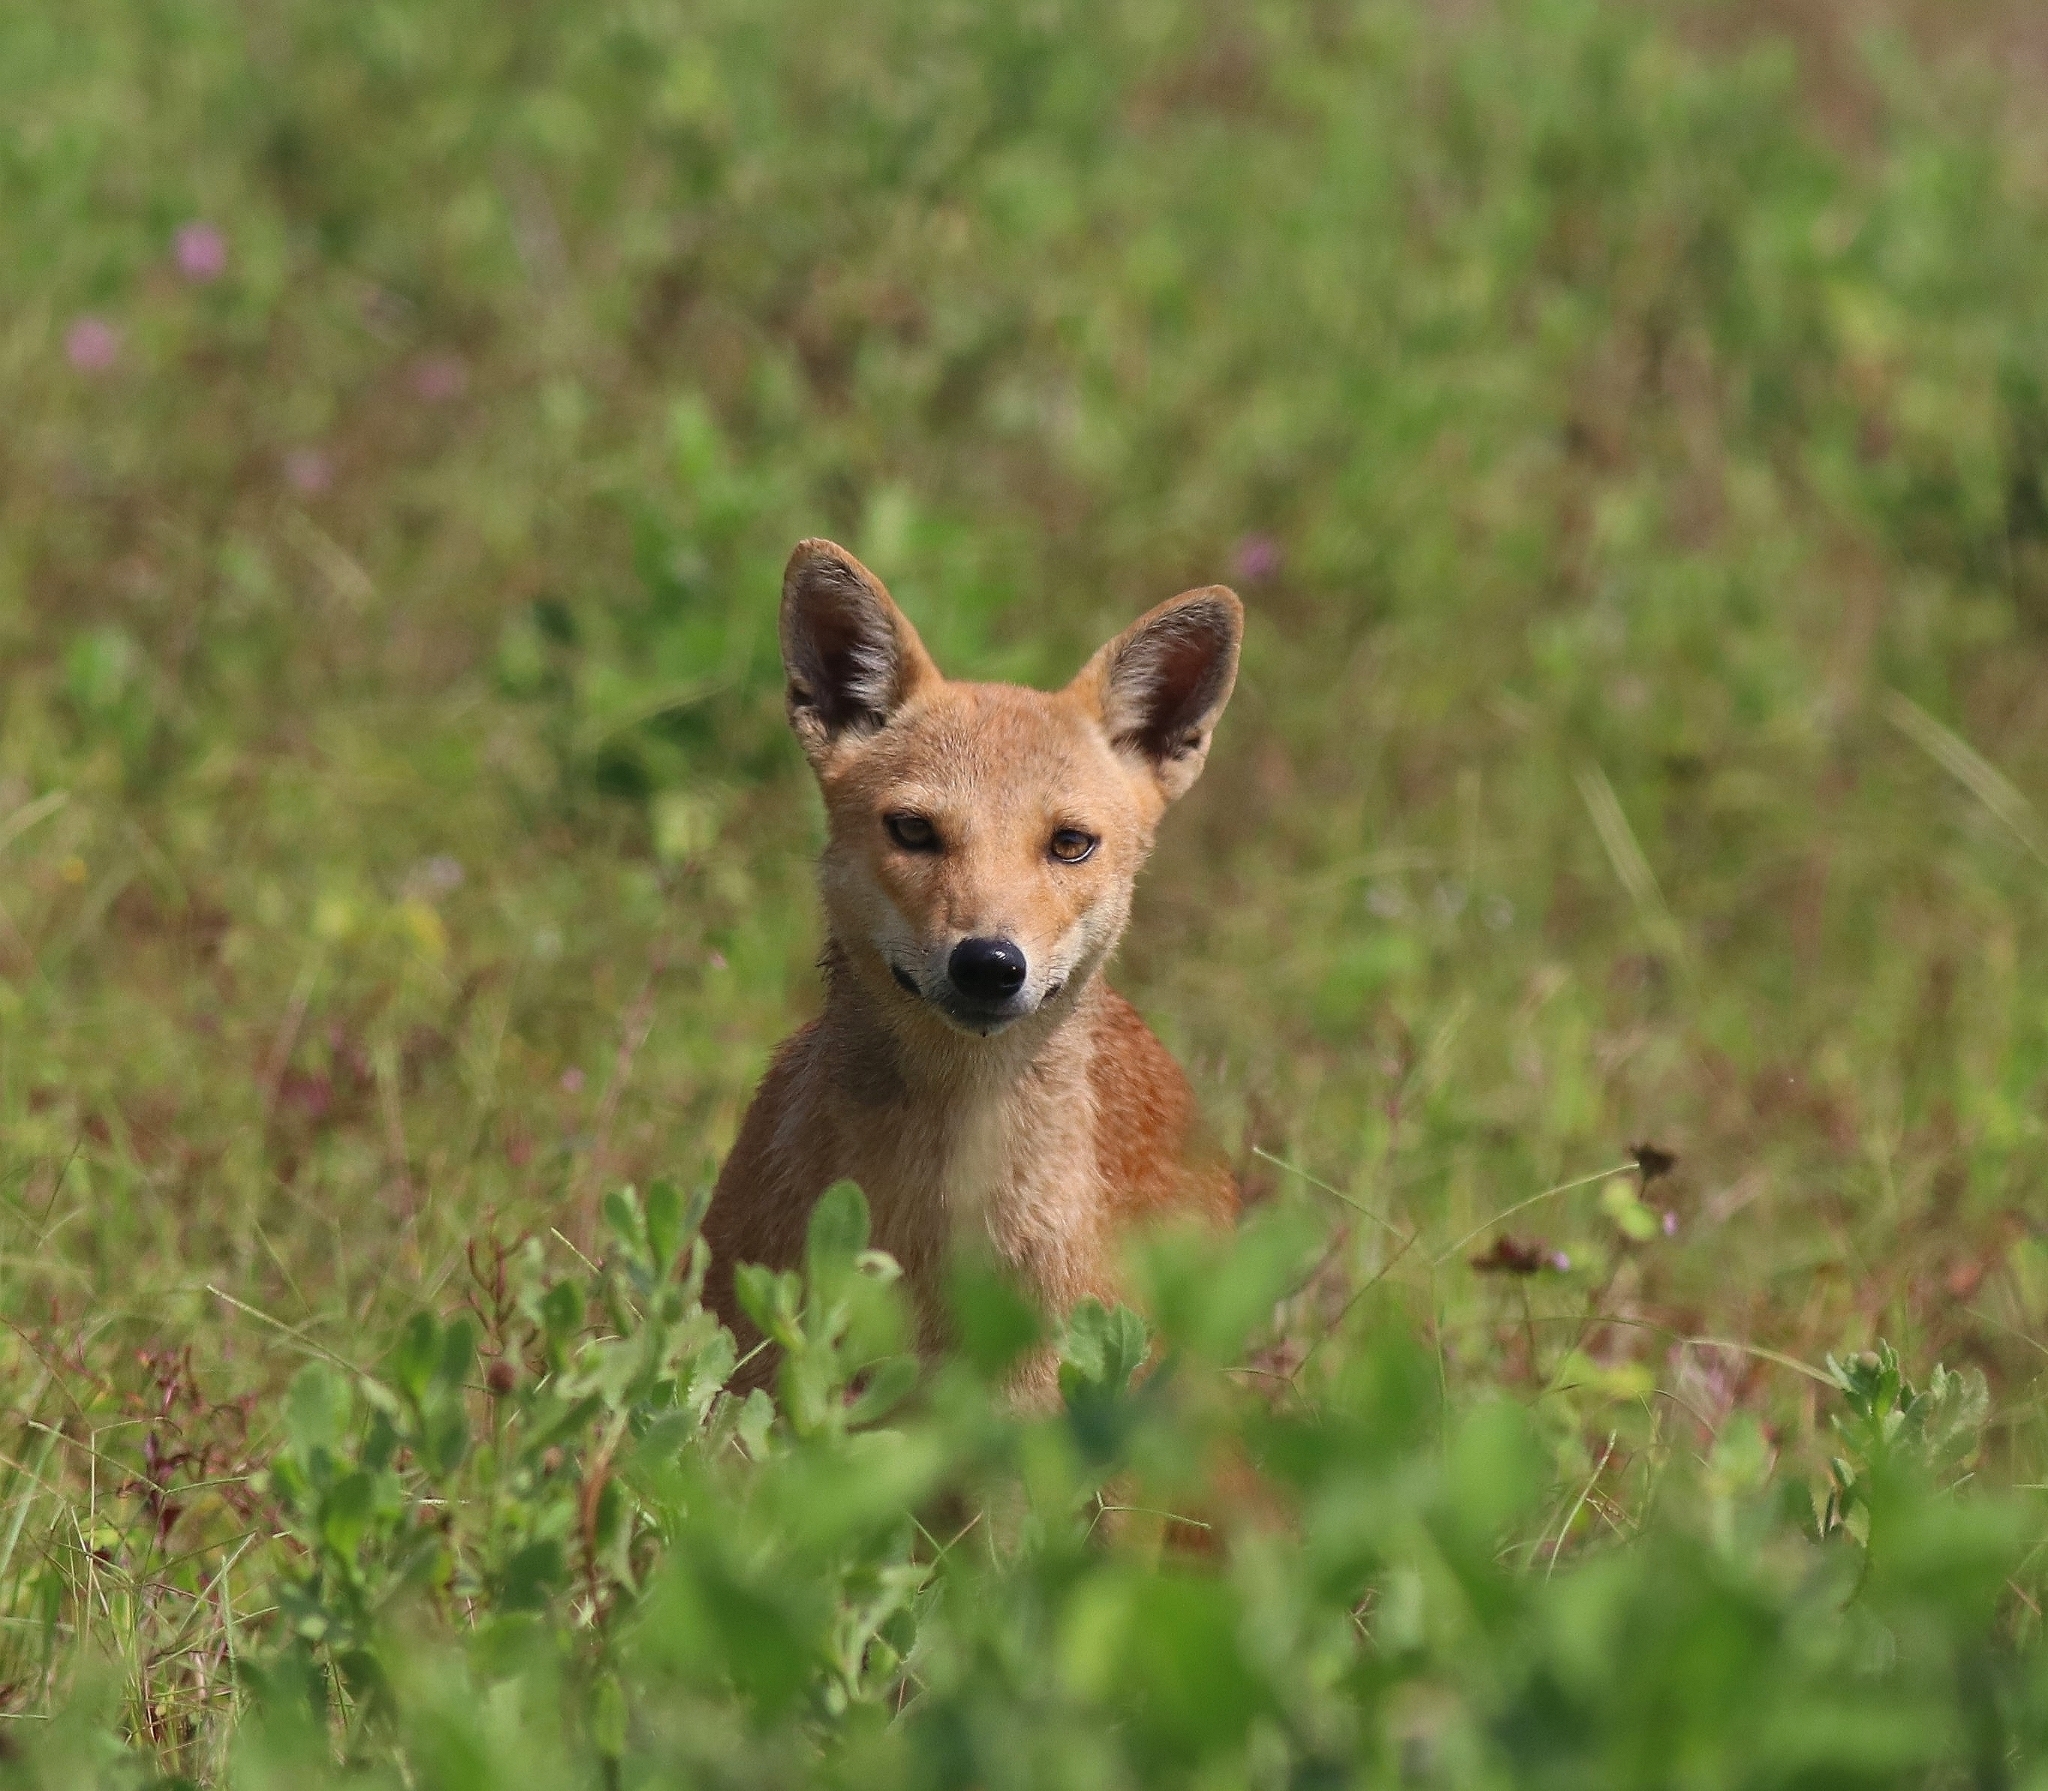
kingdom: Animalia
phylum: Chordata
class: Mammalia
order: Carnivora
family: Canidae
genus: Canis
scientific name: Canis aureus
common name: Golden jackal
